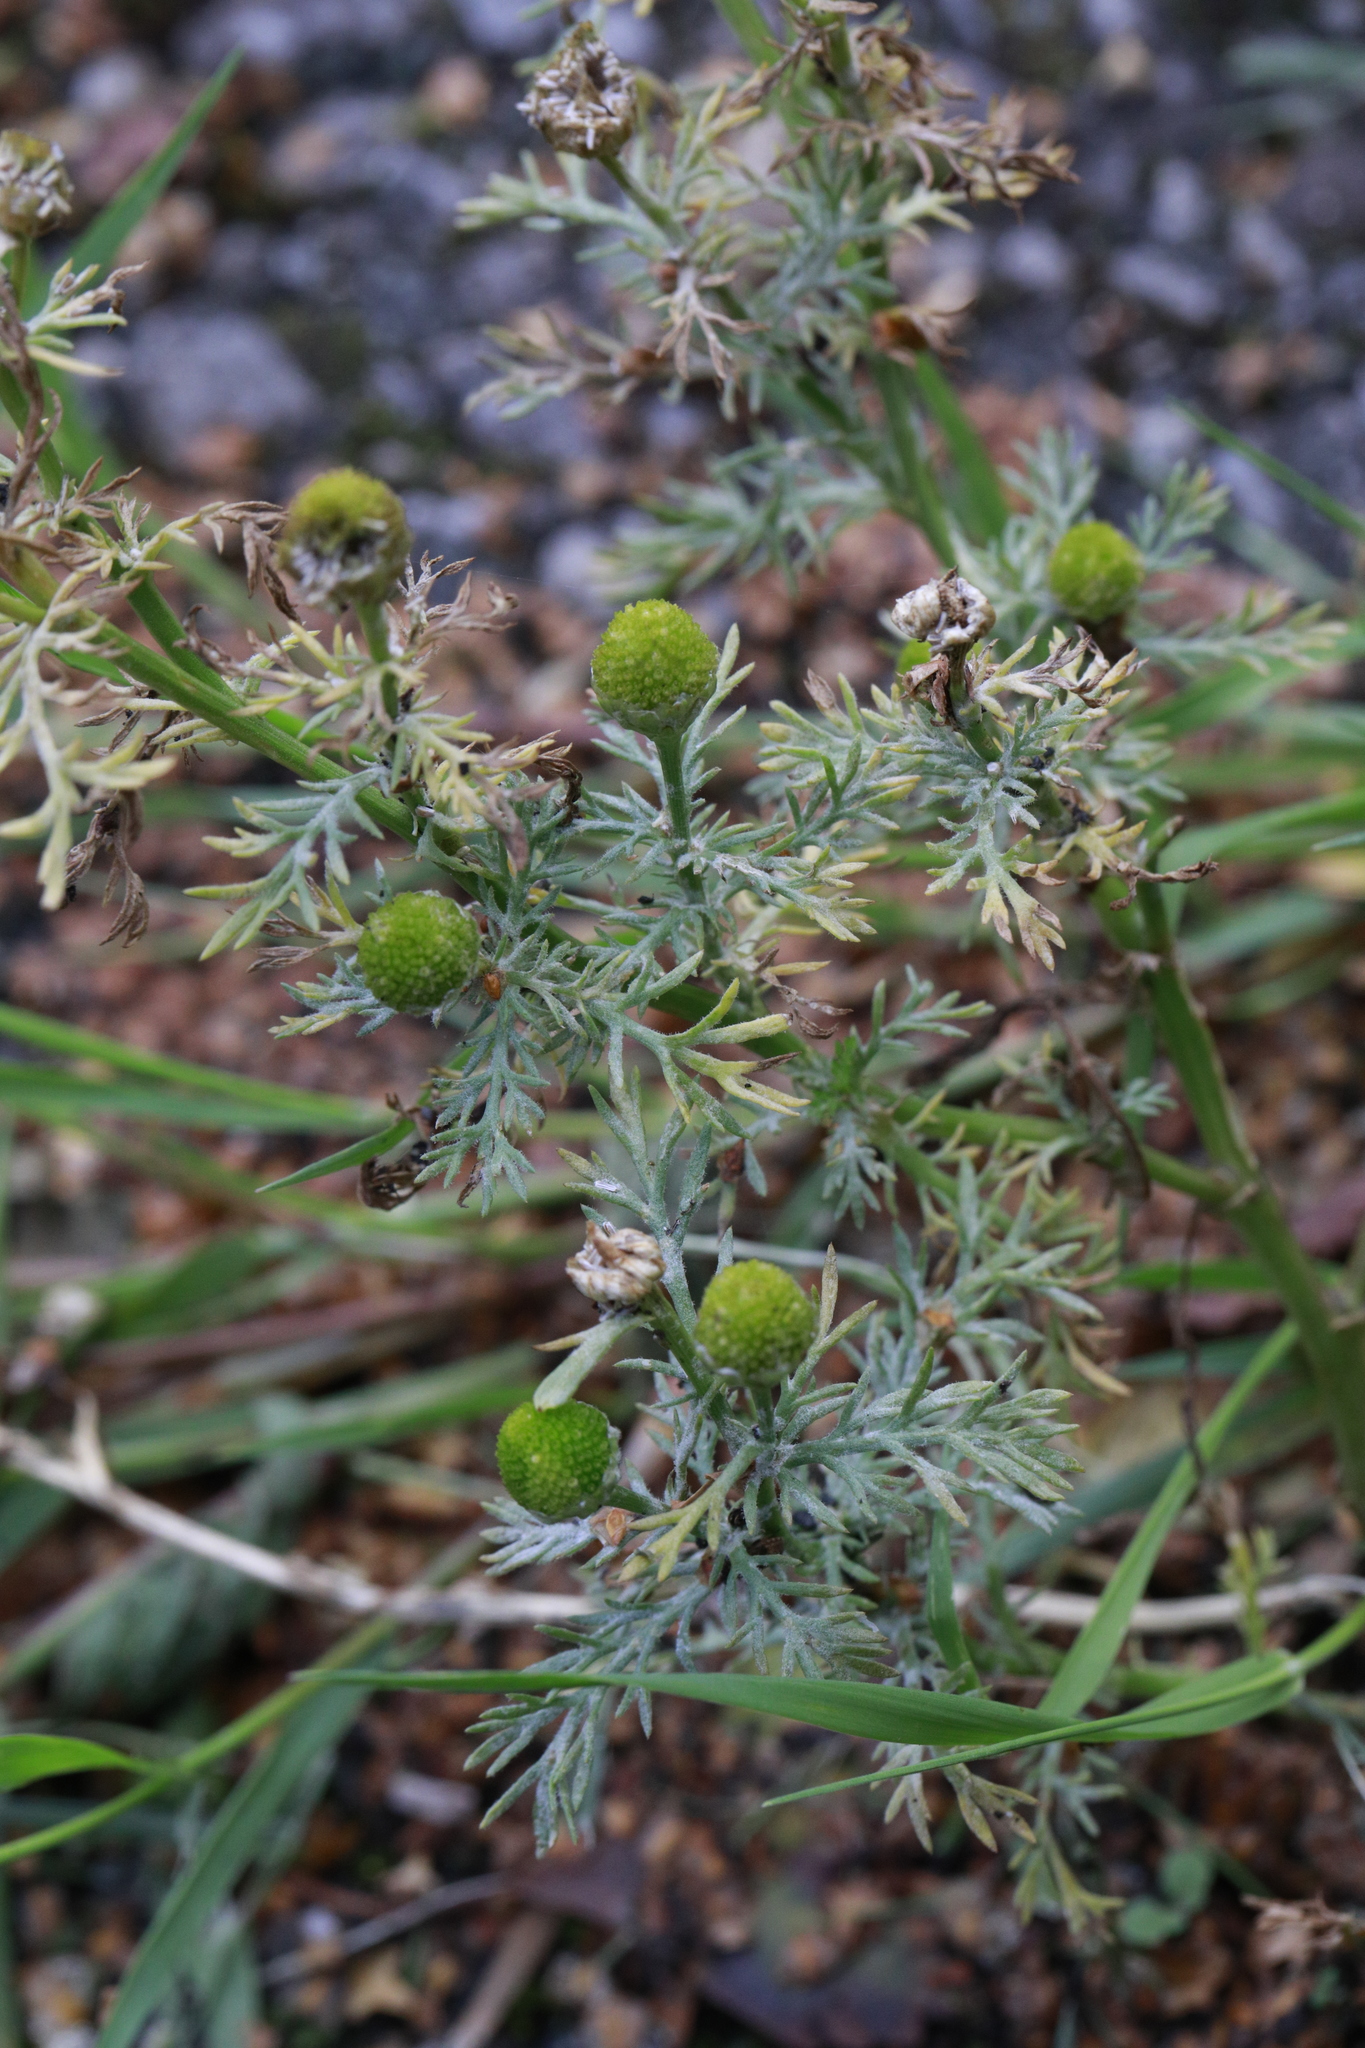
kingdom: Plantae
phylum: Tracheophyta
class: Magnoliopsida
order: Asterales
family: Asteraceae
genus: Matricaria
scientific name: Matricaria discoidea
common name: Disc mayweed
